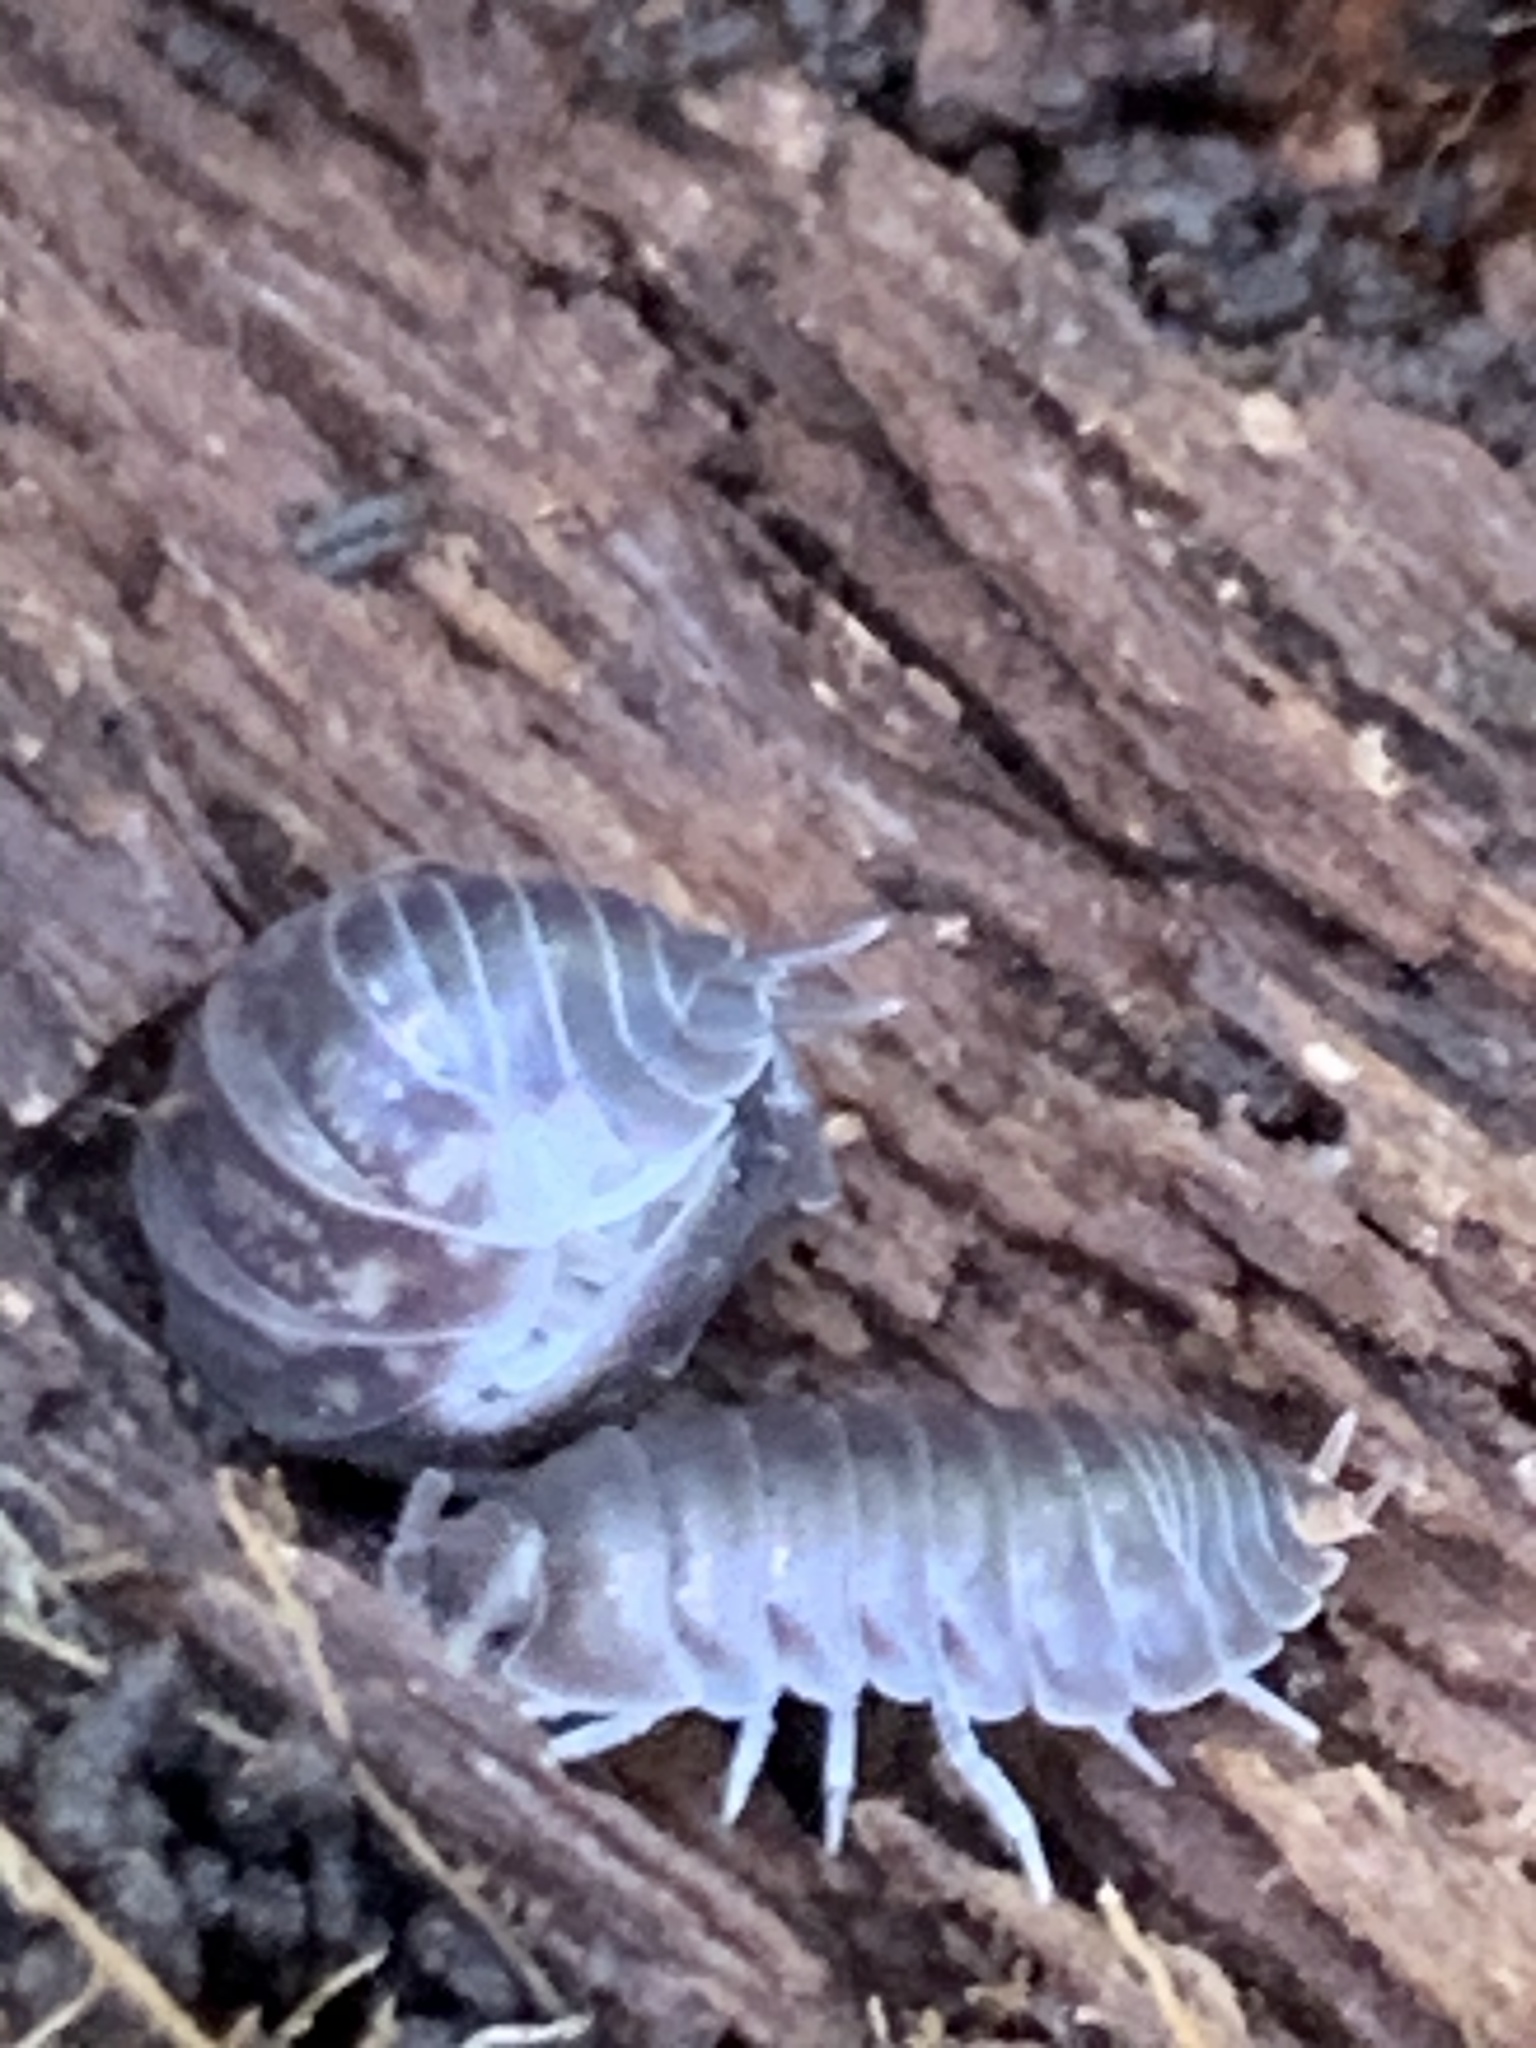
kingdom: Animalia
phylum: Arthropoda
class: Malacostraca
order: Isopoda
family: Cylisticidae
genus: Cylisticus
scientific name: Cylisticus convexus
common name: Curly woodlouse
